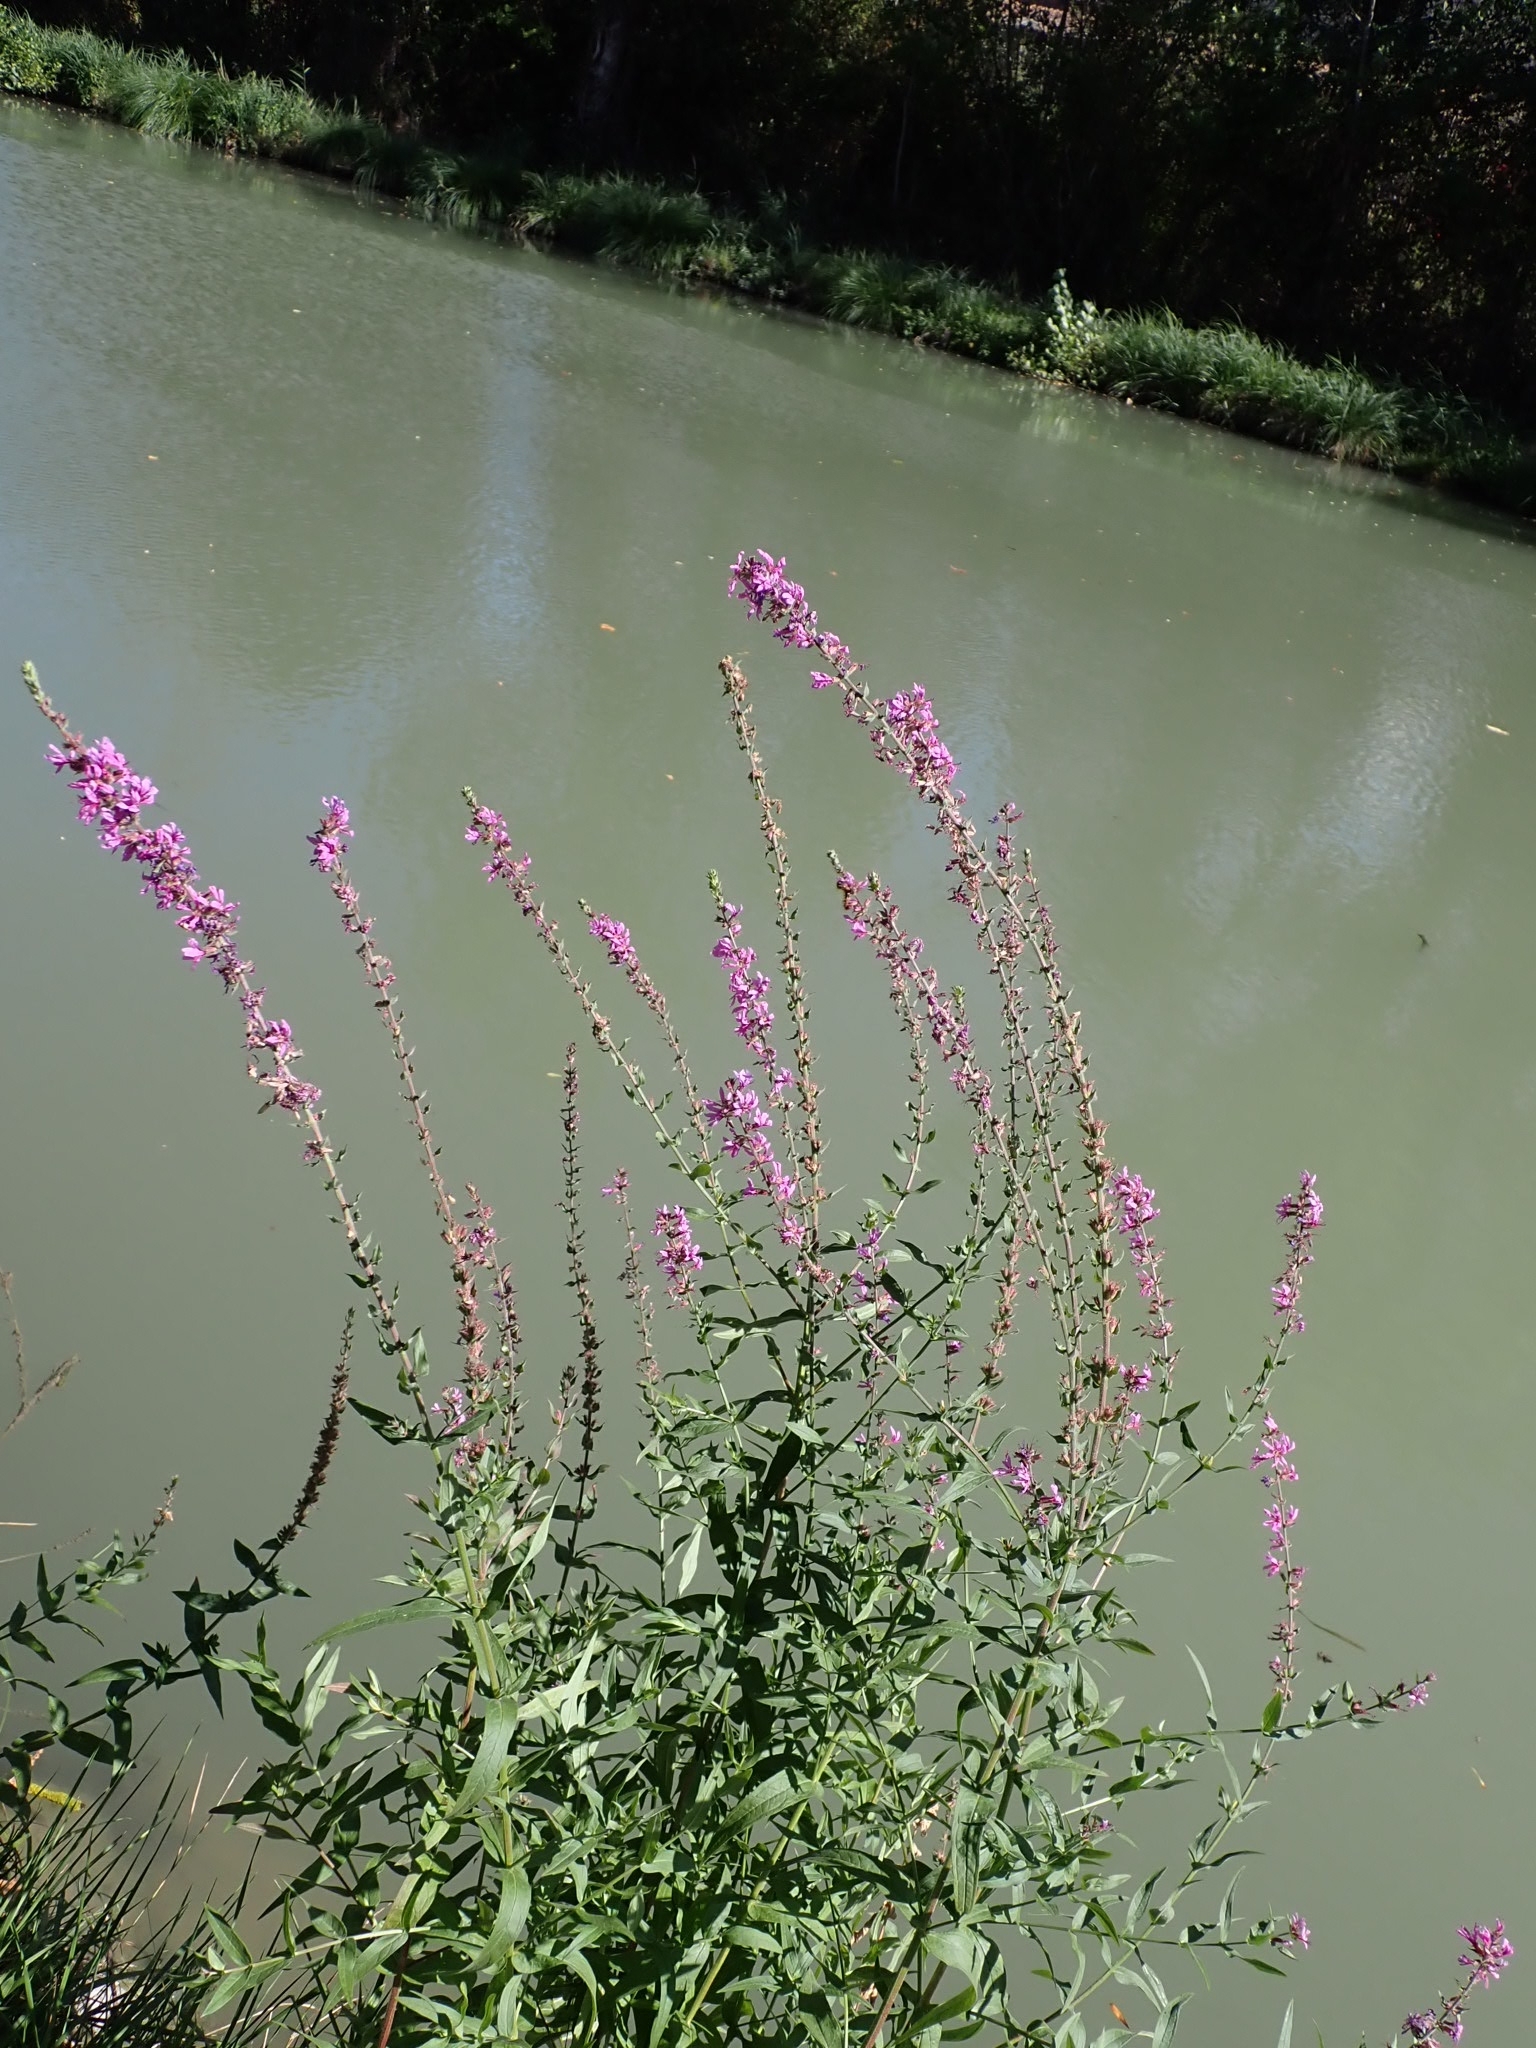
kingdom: Plantae
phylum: Tracheophyta
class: Magnoliopsida
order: Myrtales
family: Lythraceae
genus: Lythrum
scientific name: Lythrum salicaria
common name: Purple loosestrife
